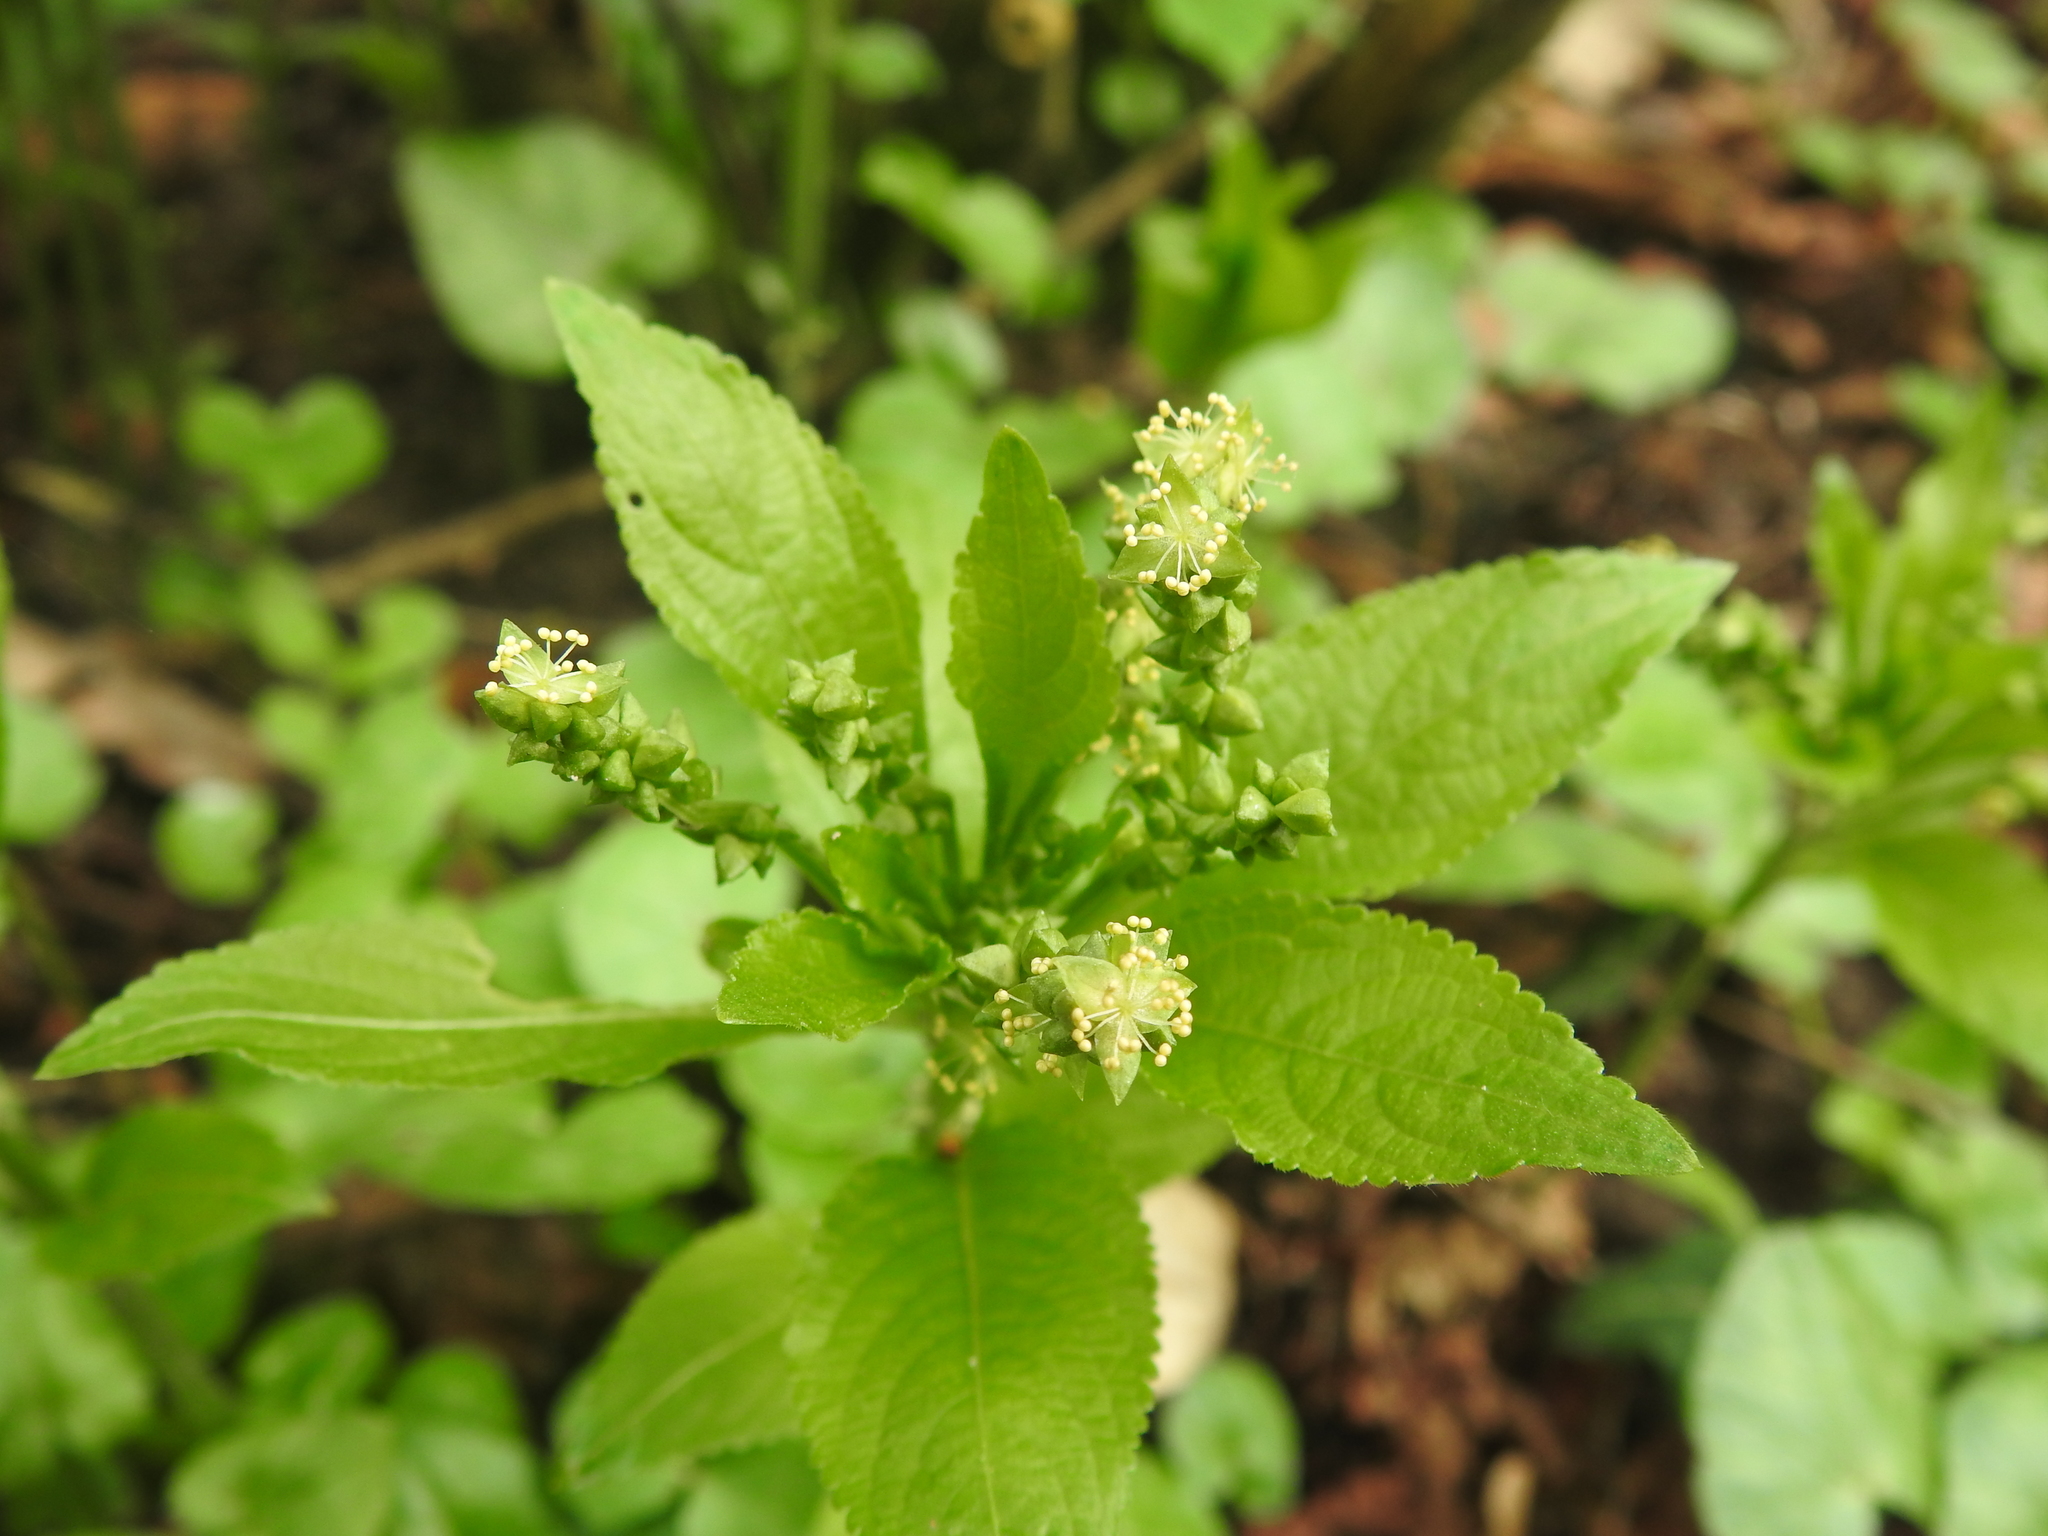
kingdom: Plantae
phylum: Tracheophyta
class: Magnoliopsida
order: Malpighiales
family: Euphorbiaceae
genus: Mercurialis
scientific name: Mercurialis perennis
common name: Dog mercury
